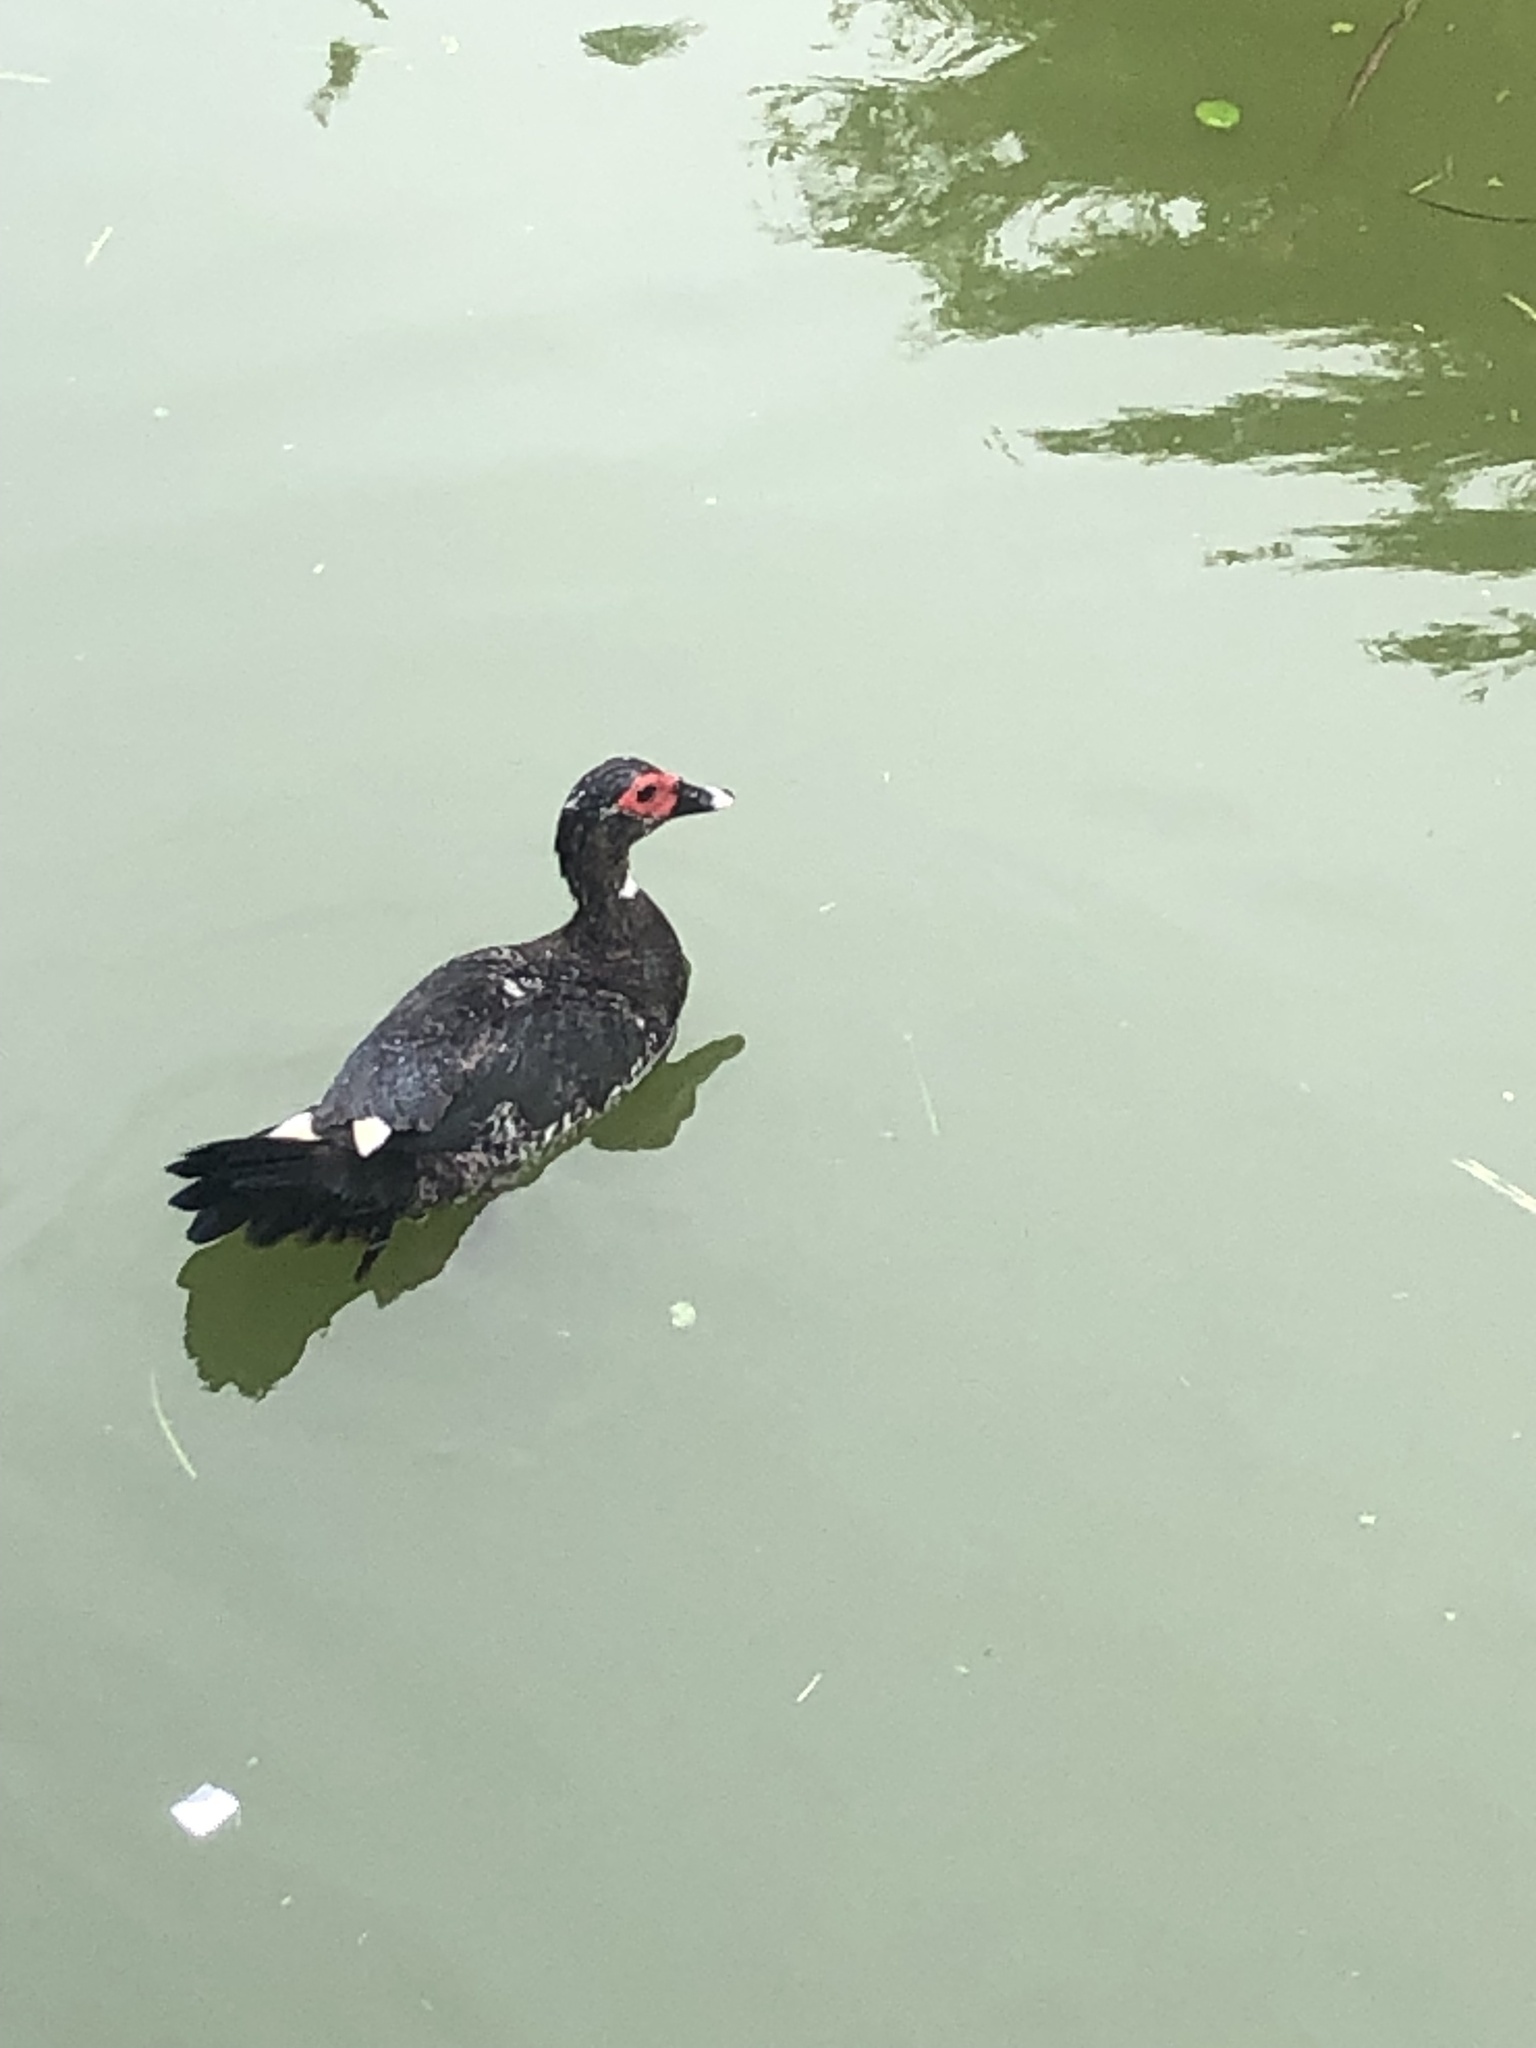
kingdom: Animalia
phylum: Chordata
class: Aves
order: Anseriformes
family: Anatidae
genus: Cairina
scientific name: Cairina moschata
